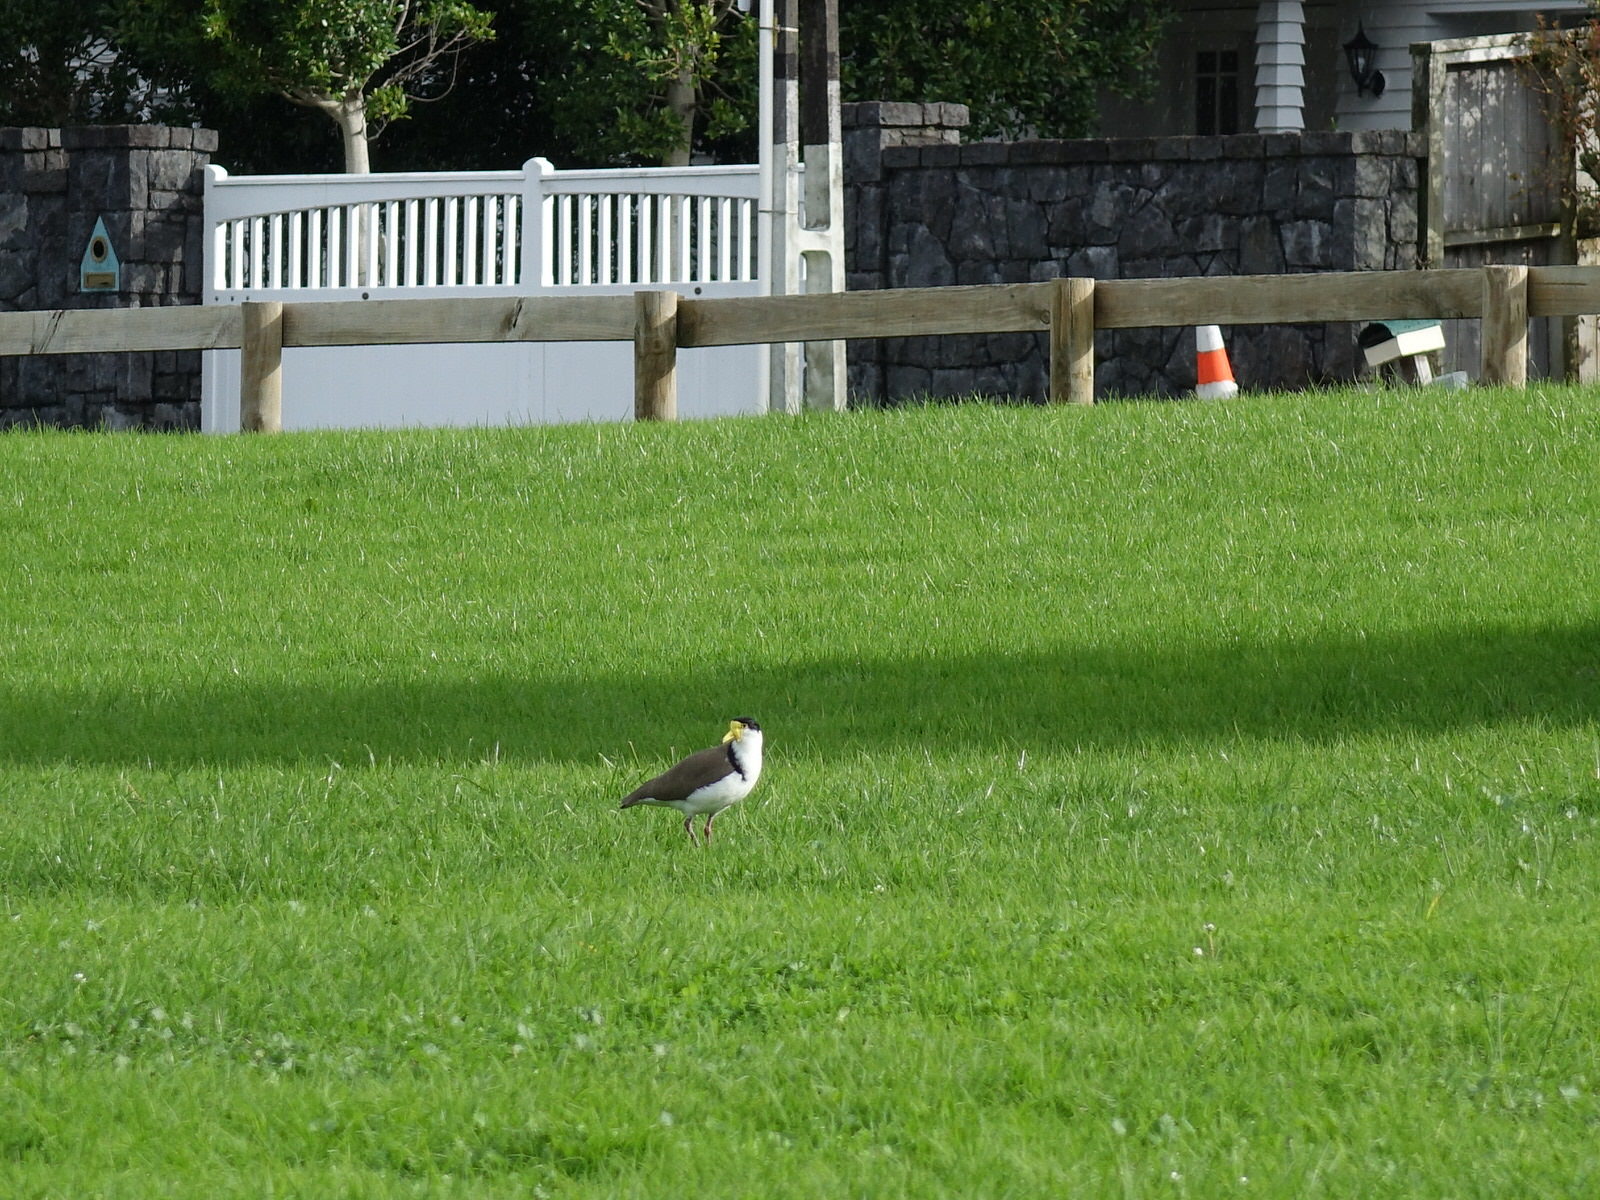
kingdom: Animalia
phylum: Chordata
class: Aves
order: Charadriiformes
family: Charadriidae
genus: Vanellus
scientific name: Vanellus miles
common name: Masked lapwing
